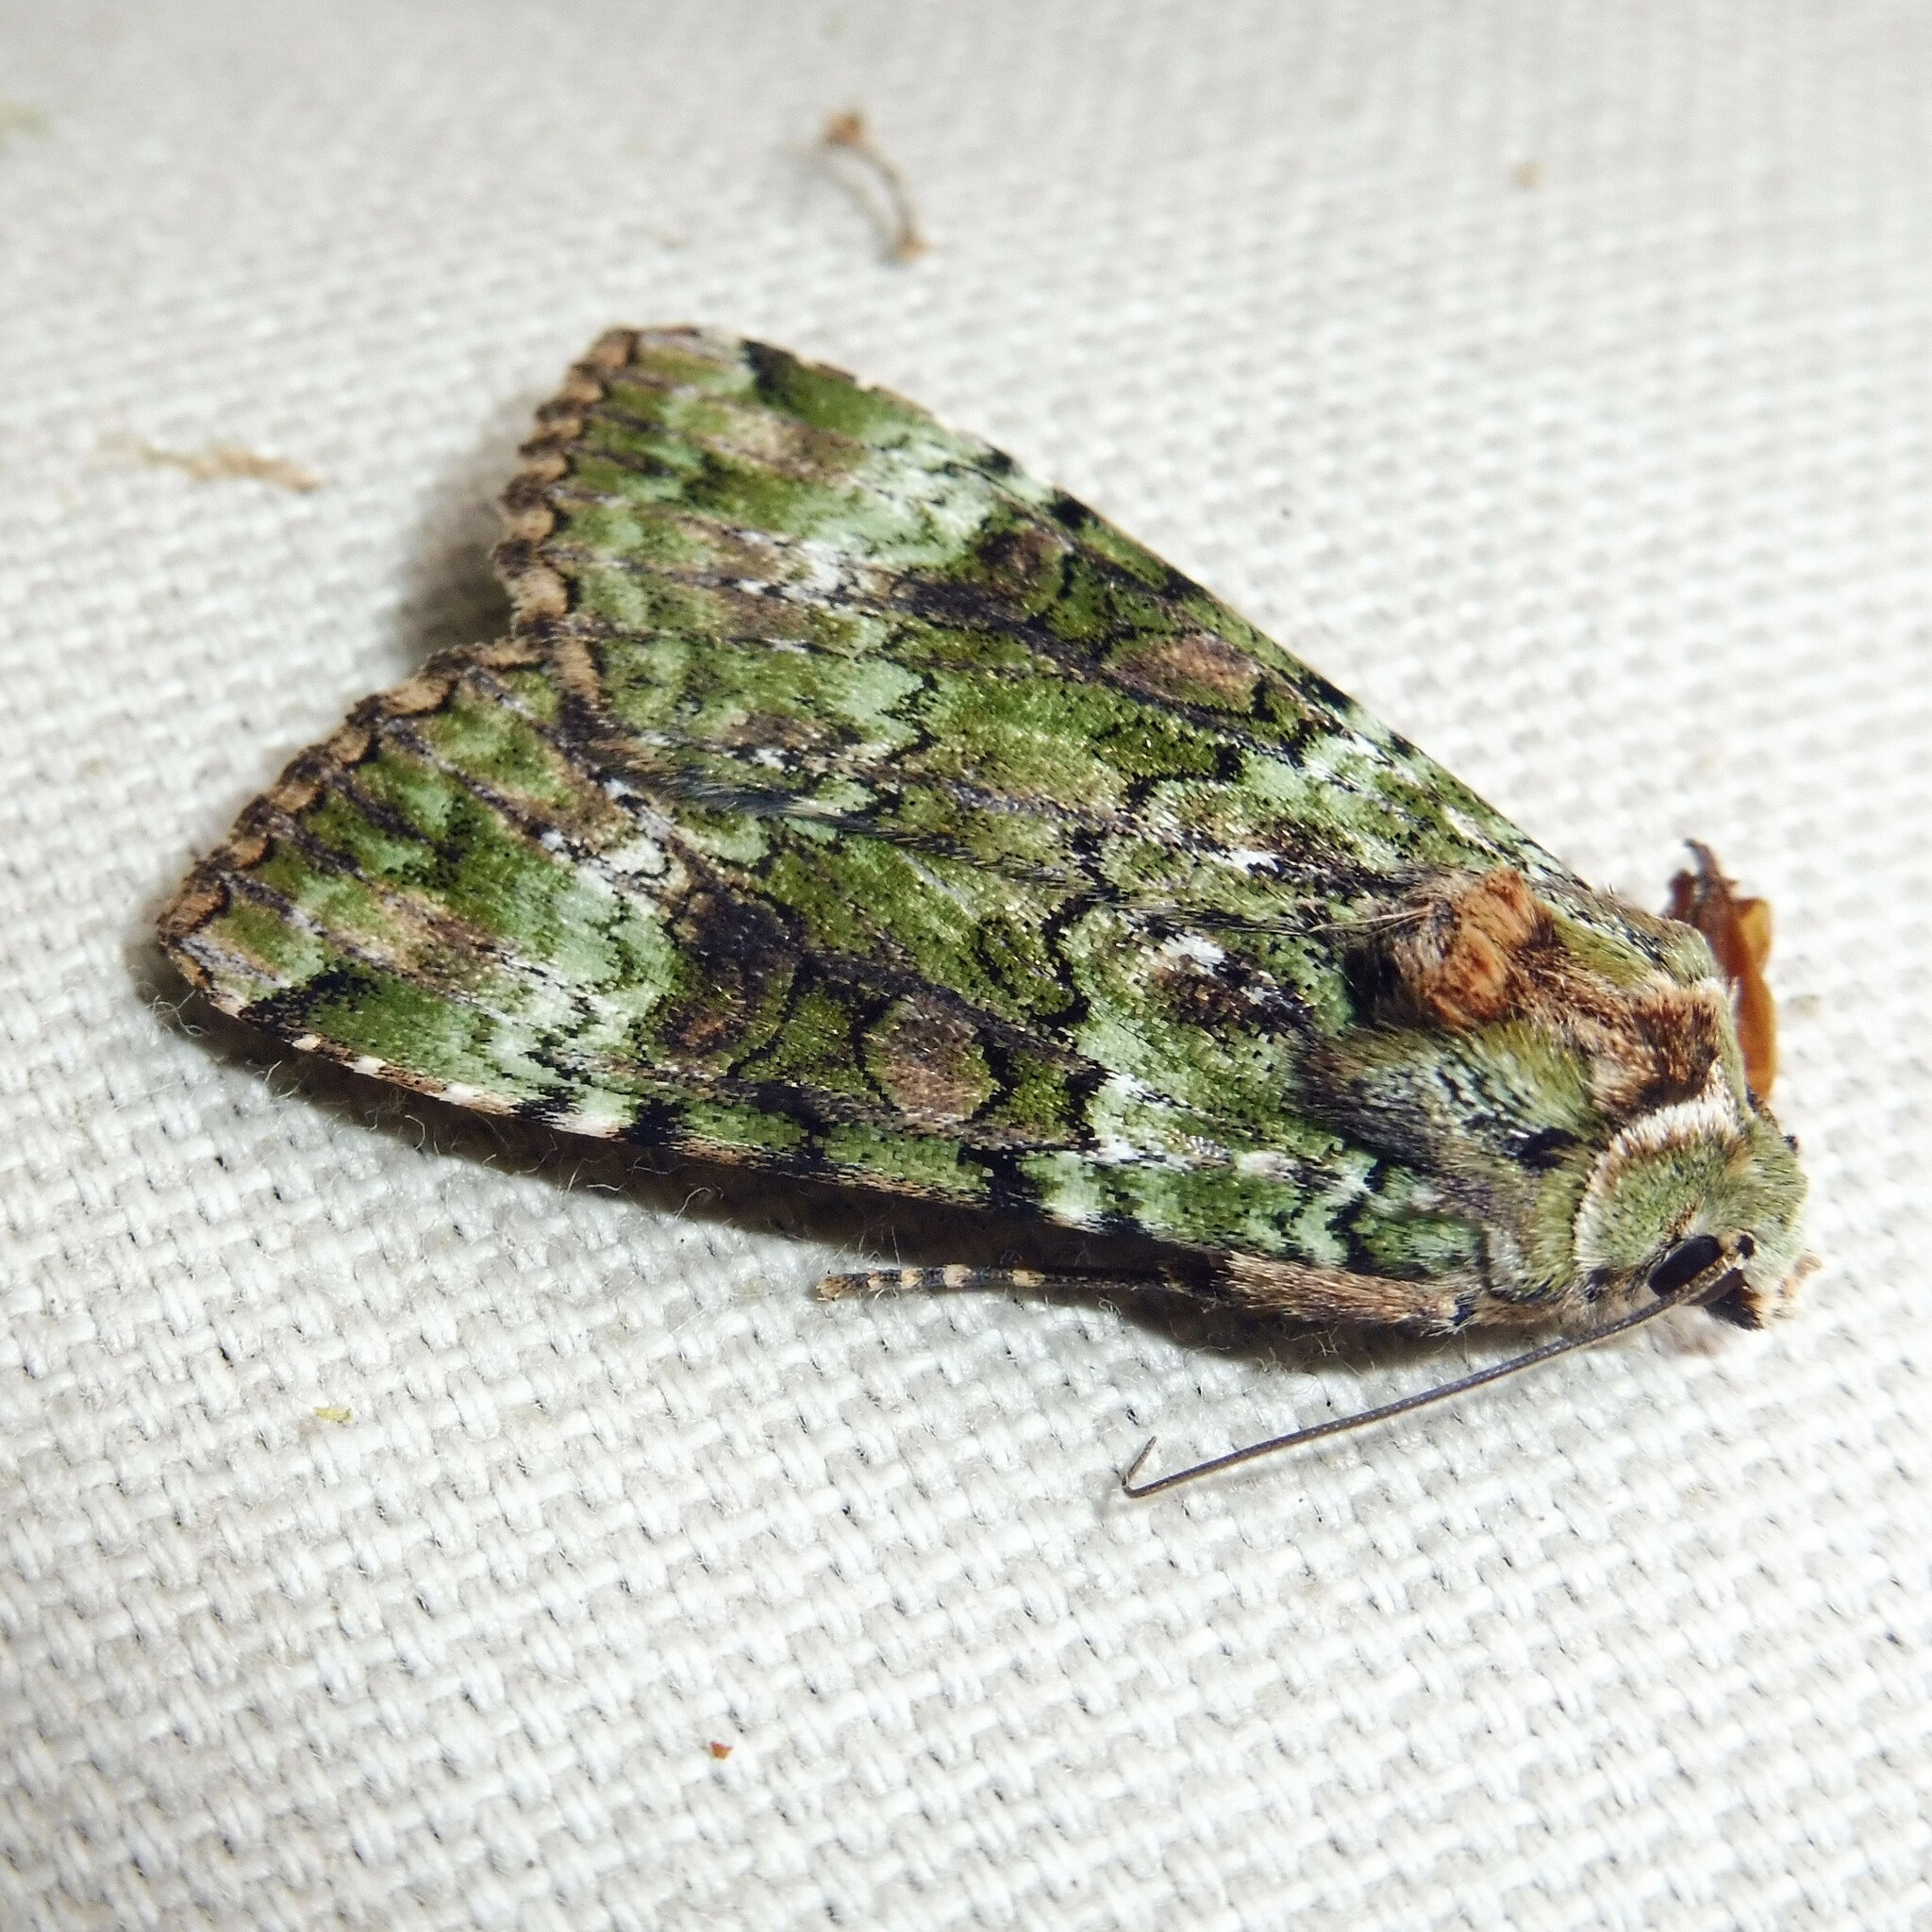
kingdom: Animalia
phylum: Arthropoda
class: Insecta
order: Lepidoptera
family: Noctuidae
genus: Anaplectoides
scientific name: Anaplectoides prasina
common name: Green arches
